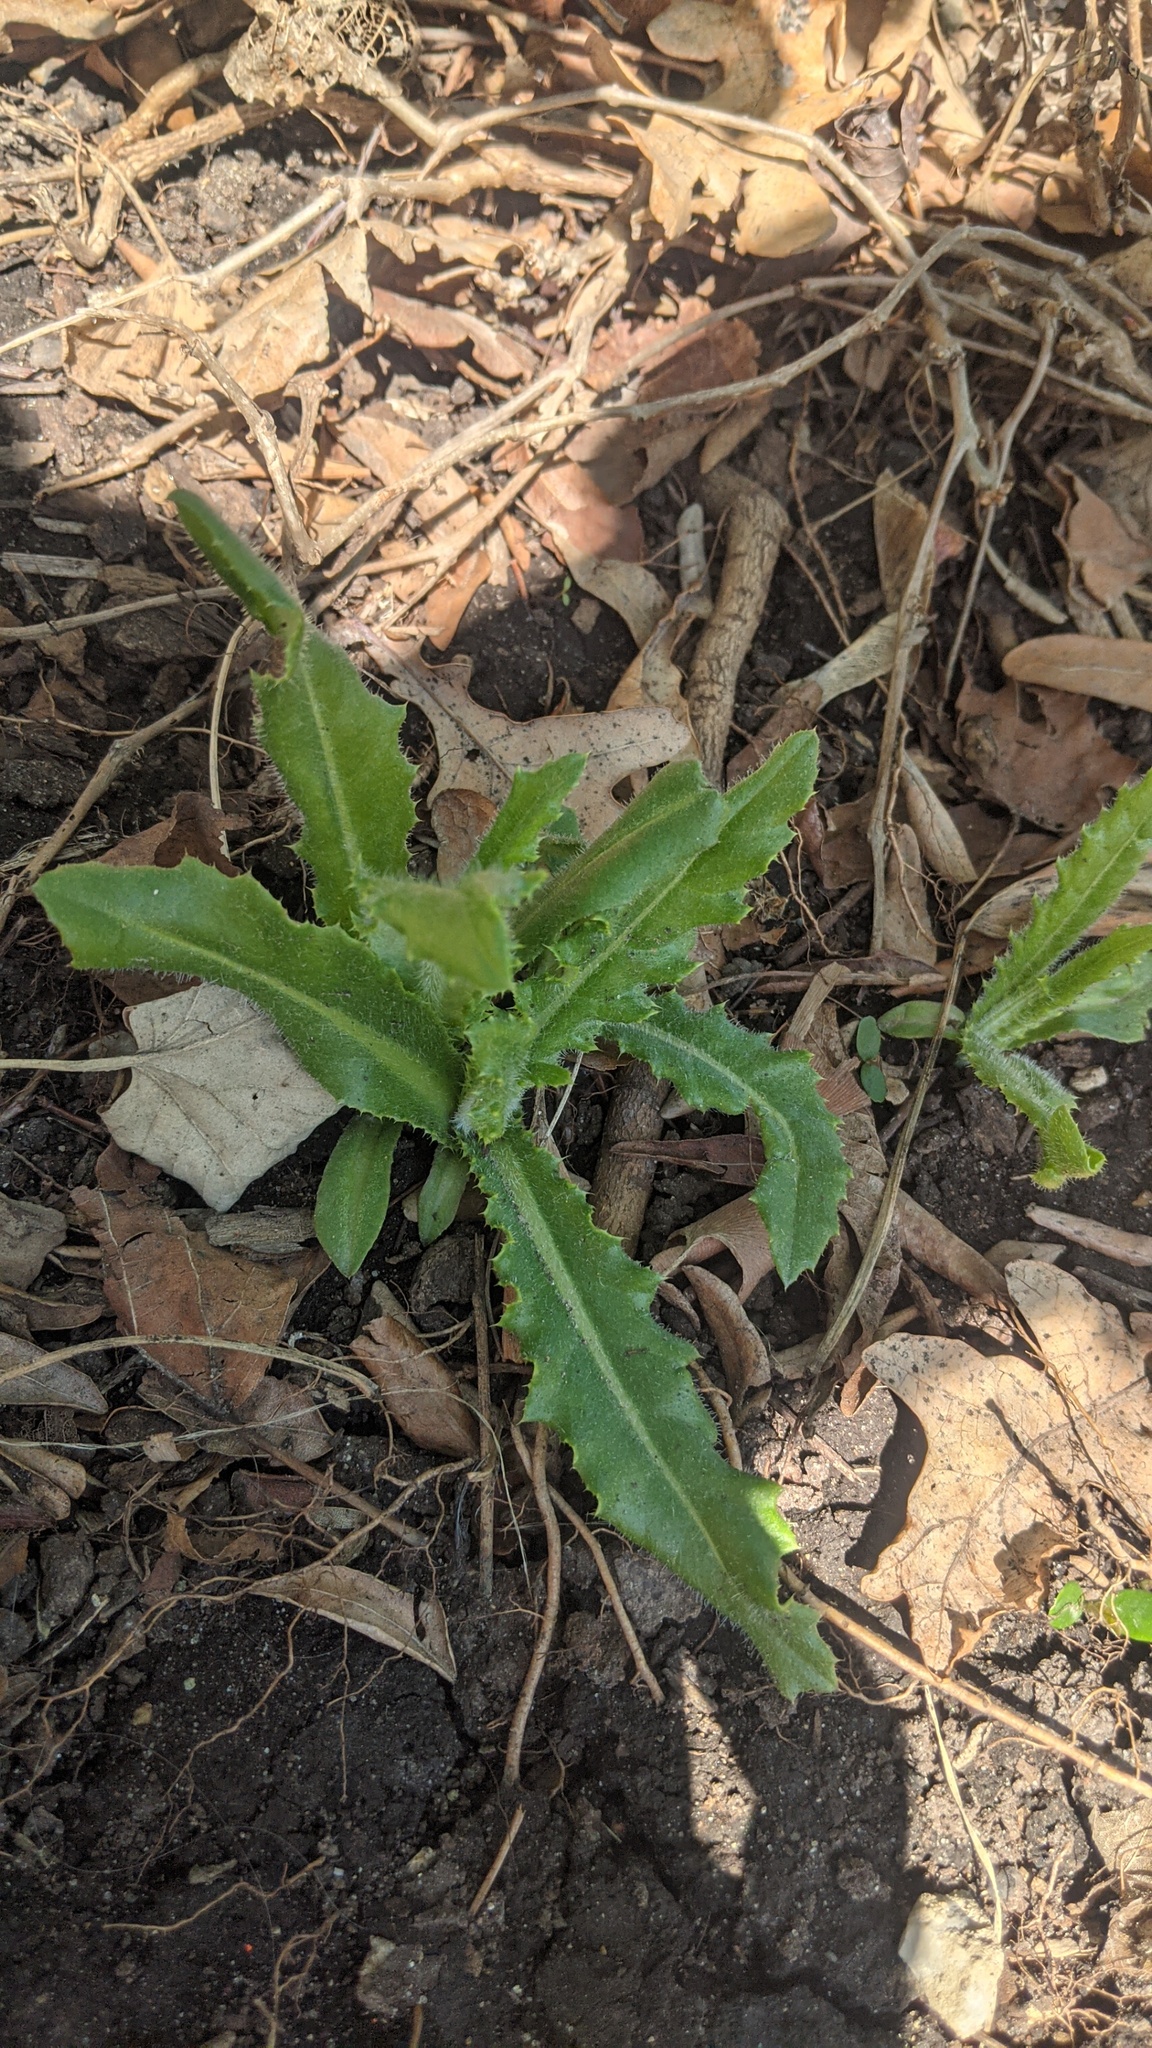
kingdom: Plantae
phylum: Tracheophyta
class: Magnoliopsida
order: Asterales
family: Asteraceae
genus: Cirsium
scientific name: Cirsium arvense
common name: Creeping thistle
